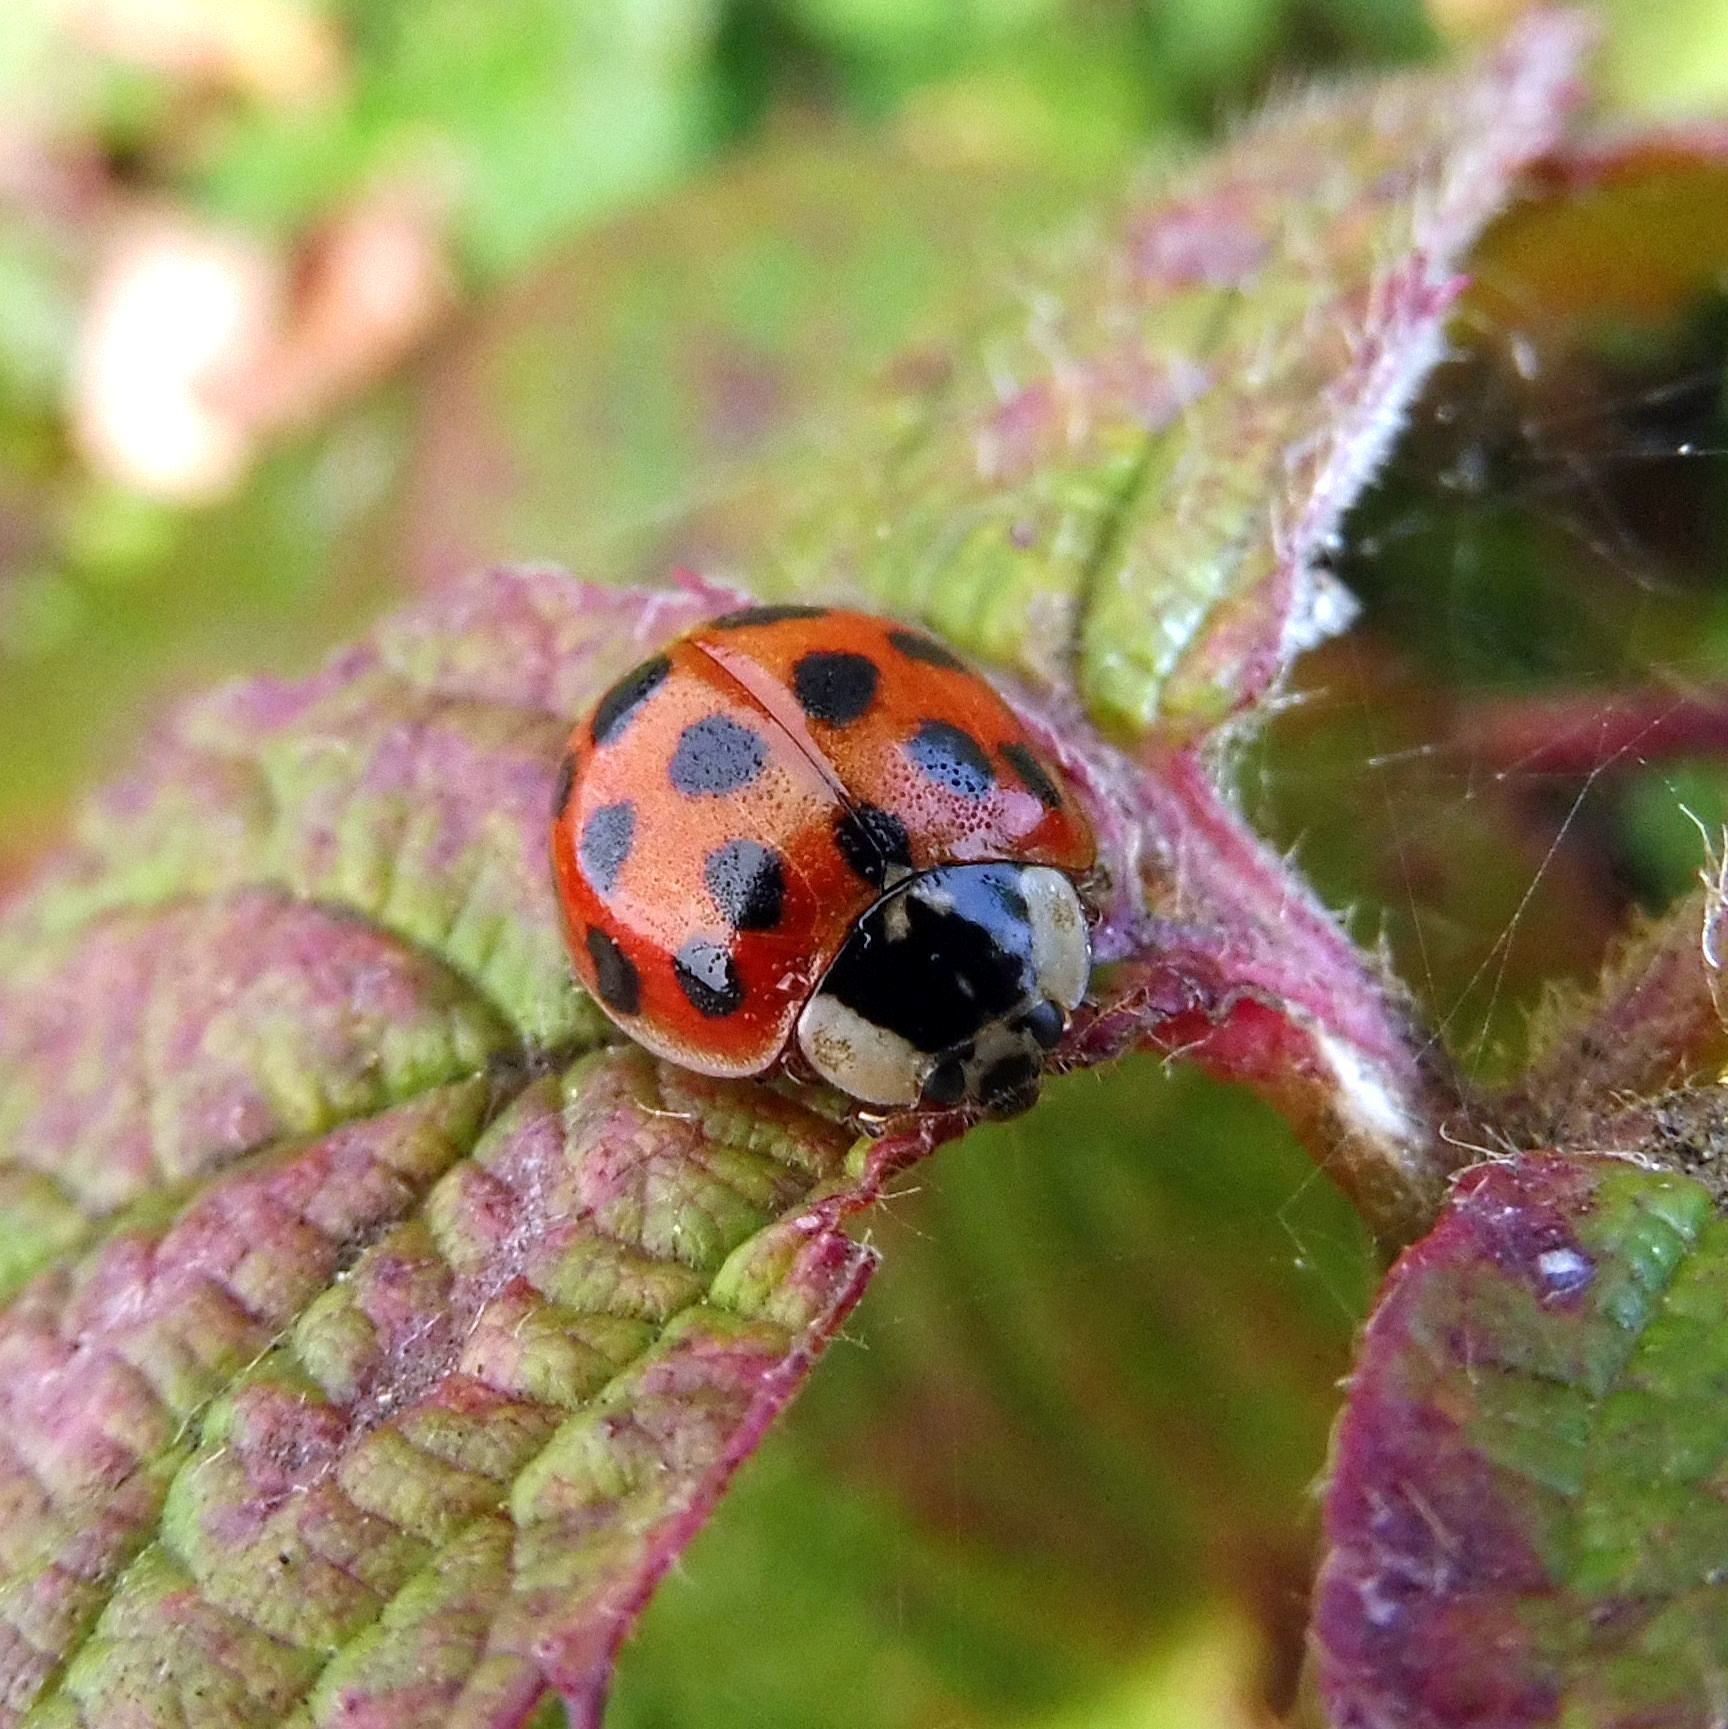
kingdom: Animalia
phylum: Arthropoda
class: Insecta
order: Coleoptera
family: Coccinellidae
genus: Harmonia
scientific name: Harmonia axyridis
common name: Harlequin ladybird
